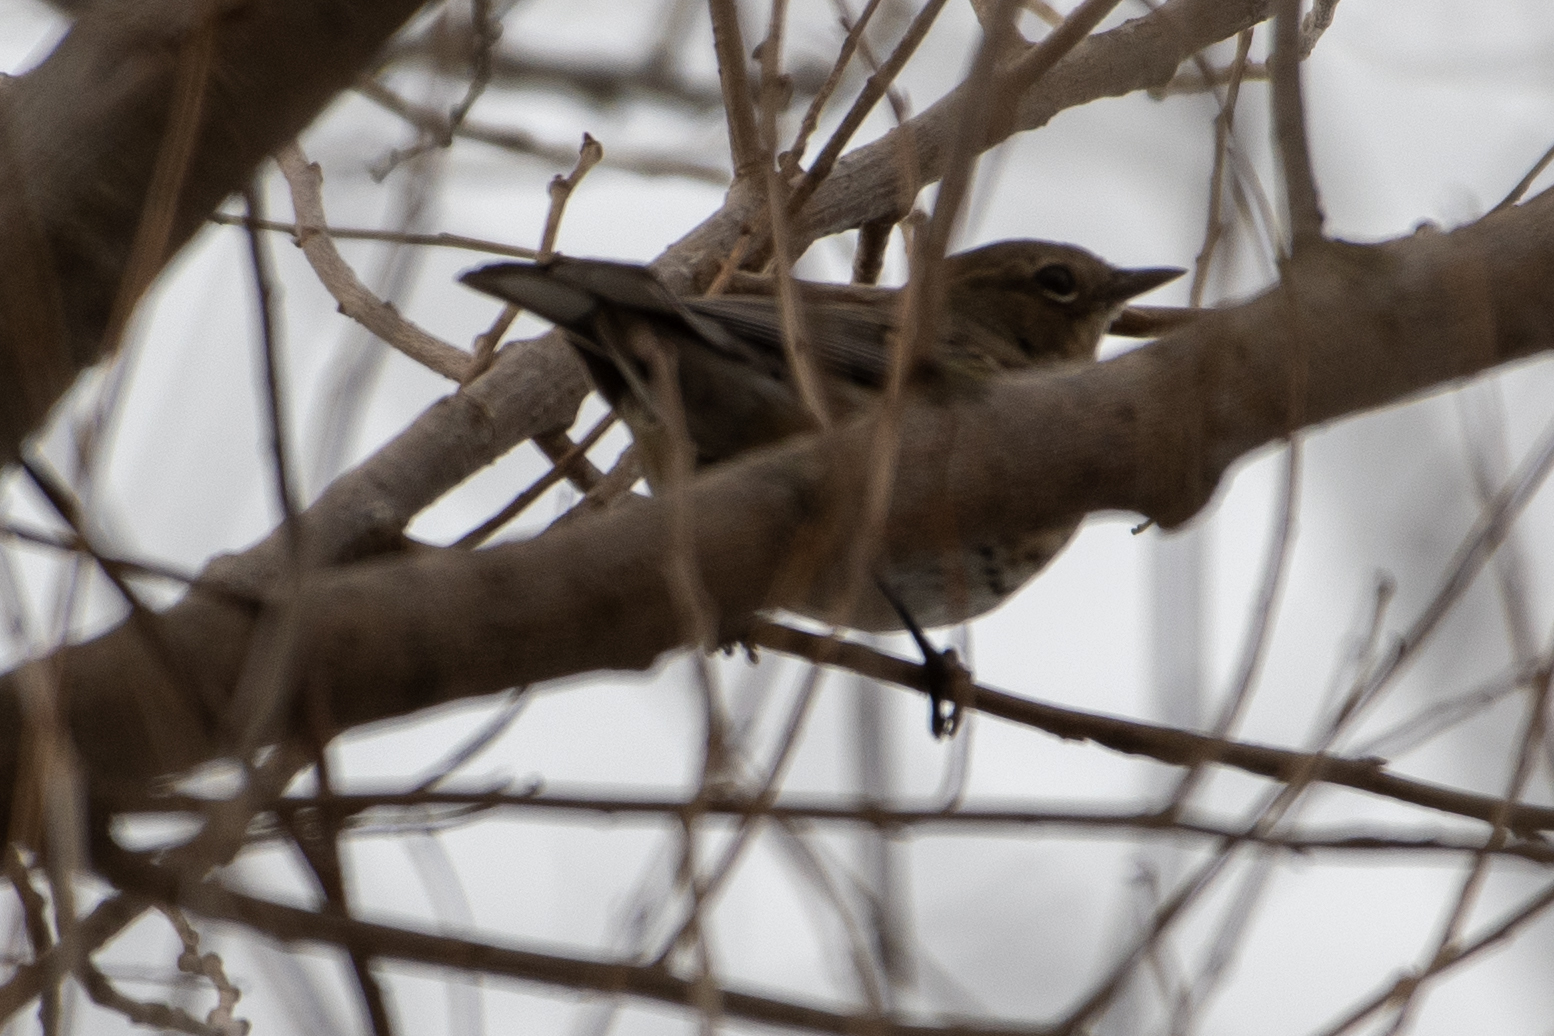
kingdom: Animalia
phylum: Chordata
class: Aves
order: Passeriformes
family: Parulidae
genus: Setophaga
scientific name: Setophaga coronata
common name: Myrtle warbler
